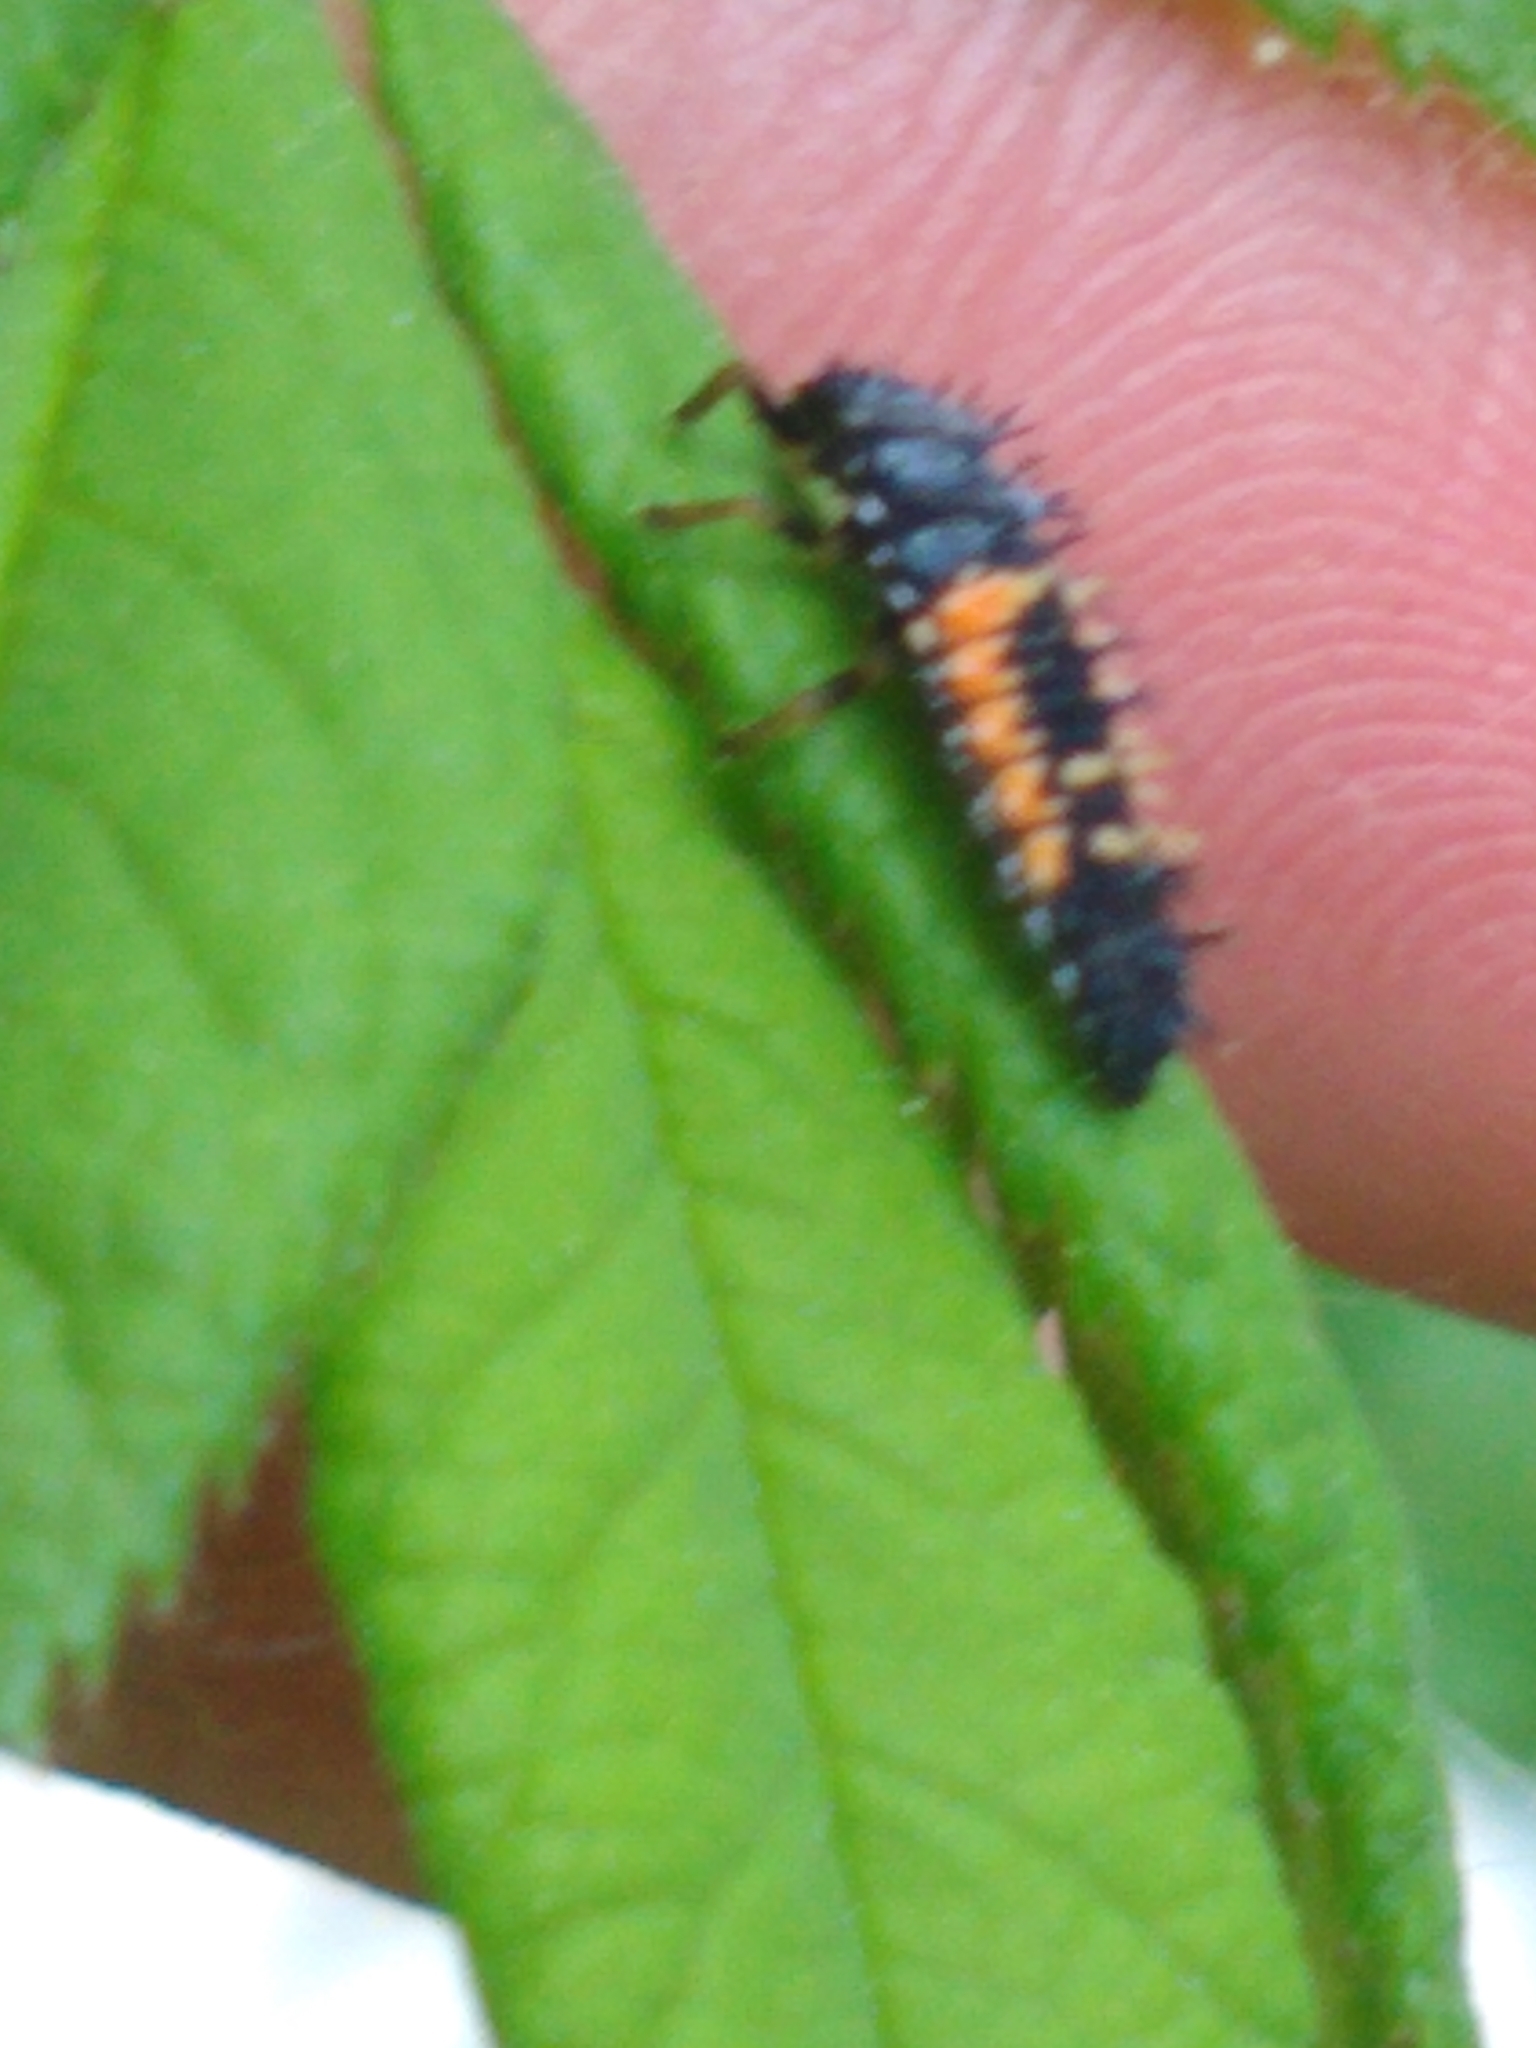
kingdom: Animalia
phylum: Arthropoda
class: Insecta
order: Coleoptera
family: Coccinellidae
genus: Harmonia
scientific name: Harmonia axyridis
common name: Harlequin ladybird
